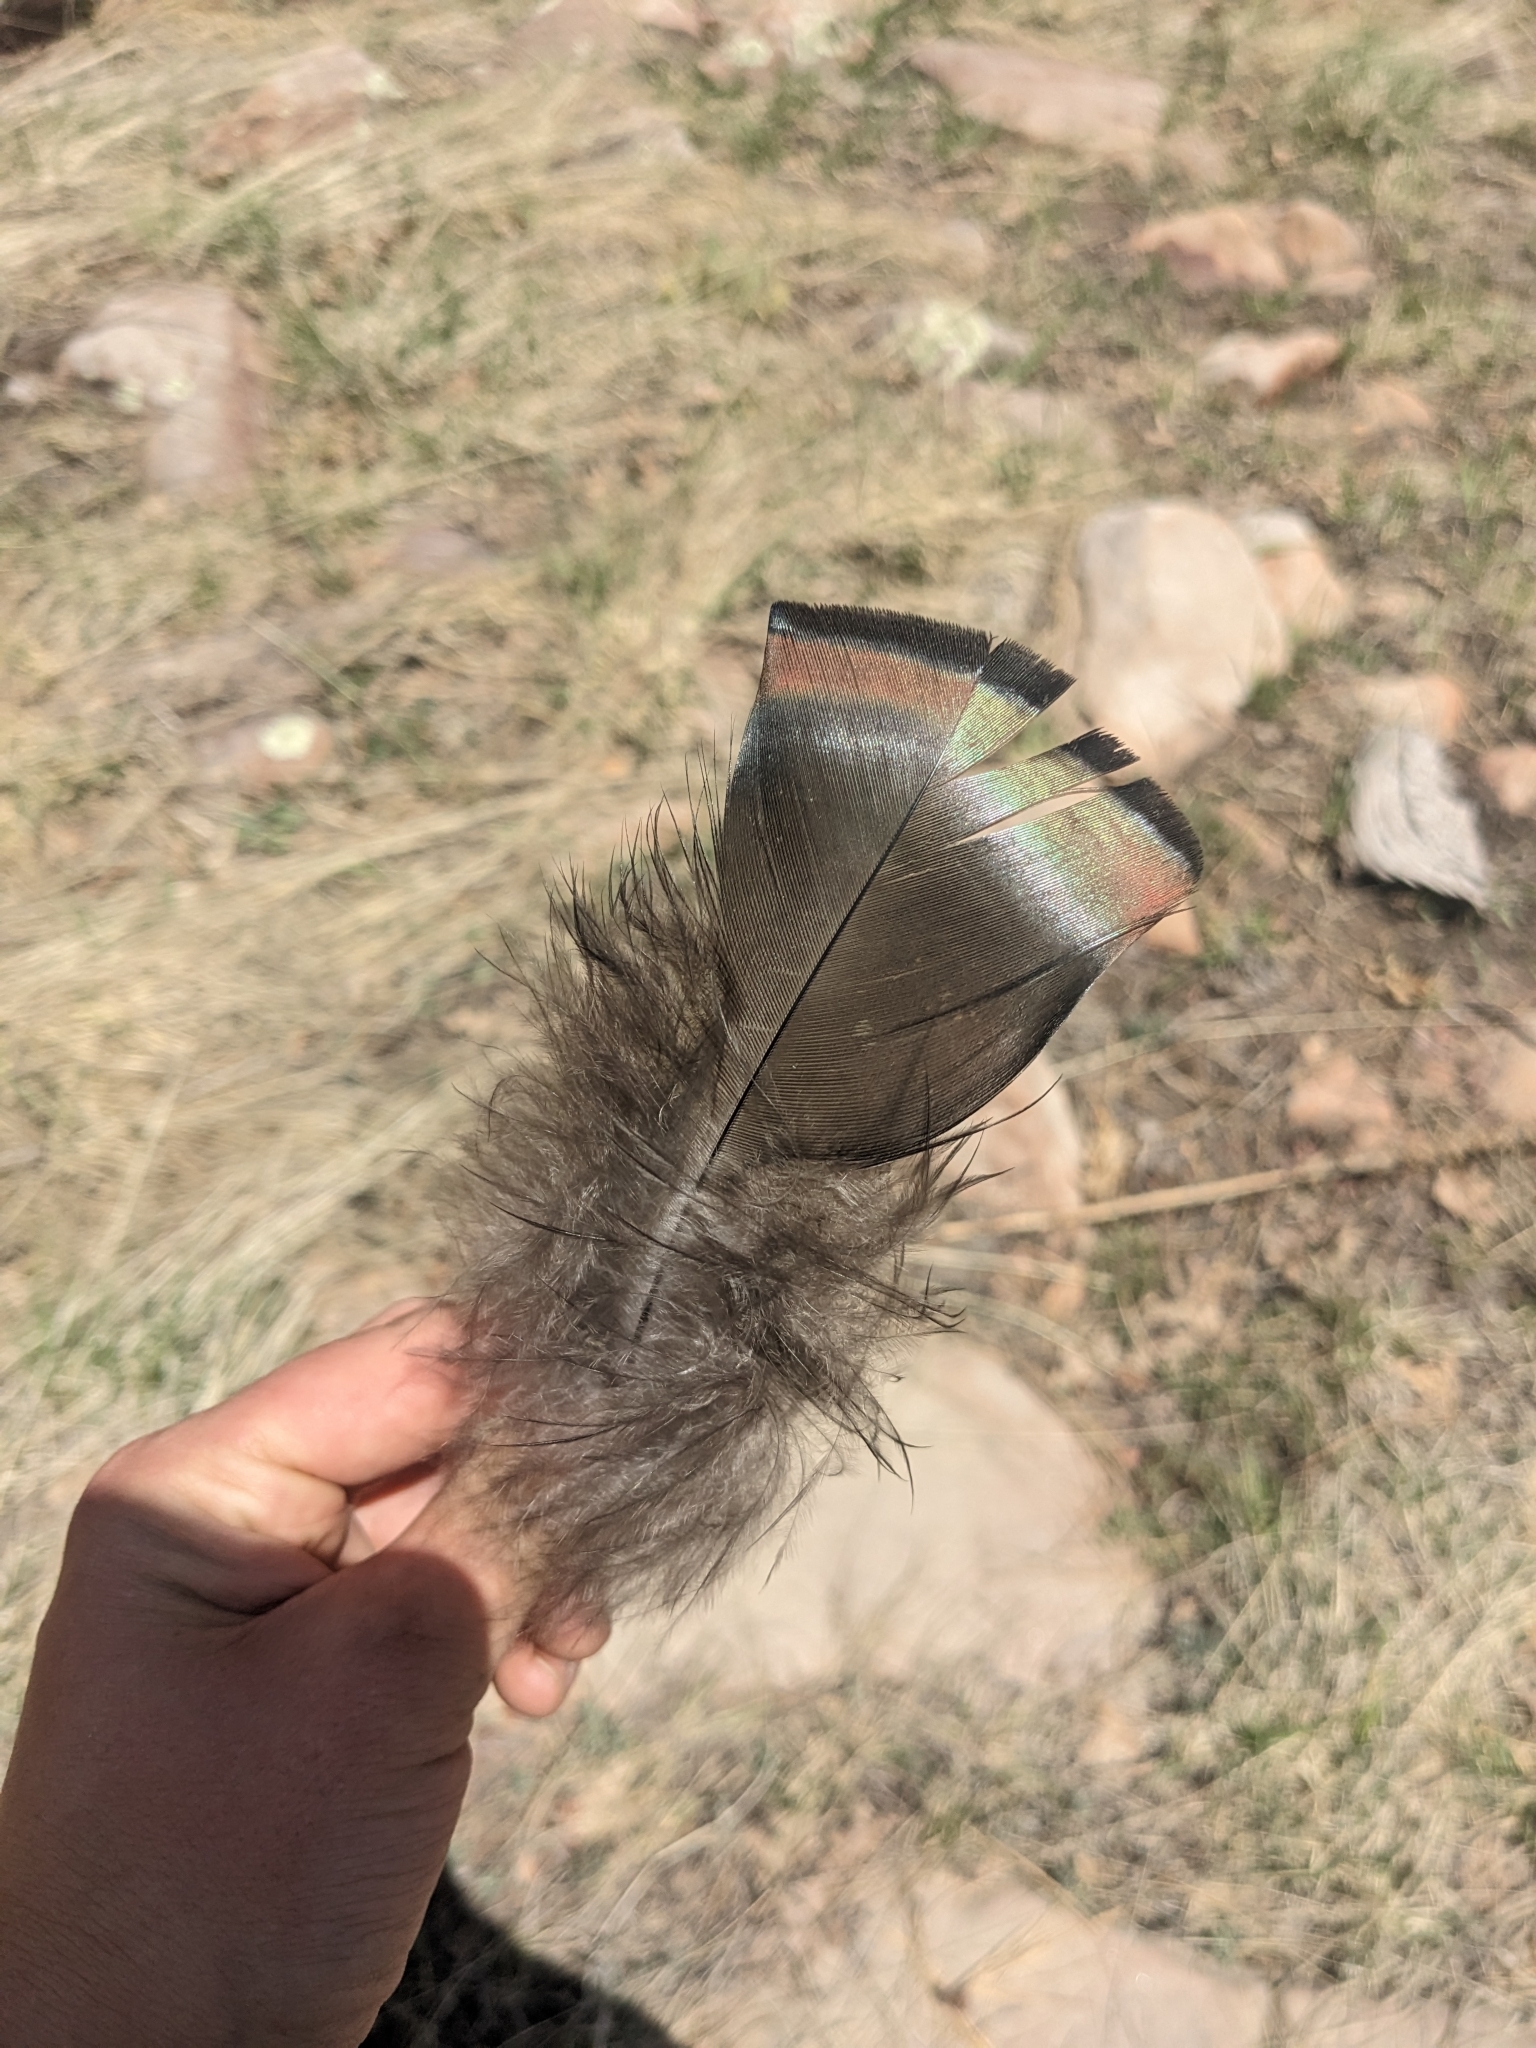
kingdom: Animalia
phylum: Chordata
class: Aves
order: Galliformes
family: Phasianidae
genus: Meleagris
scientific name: Meleagris gallopavo
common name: Wild turkey
